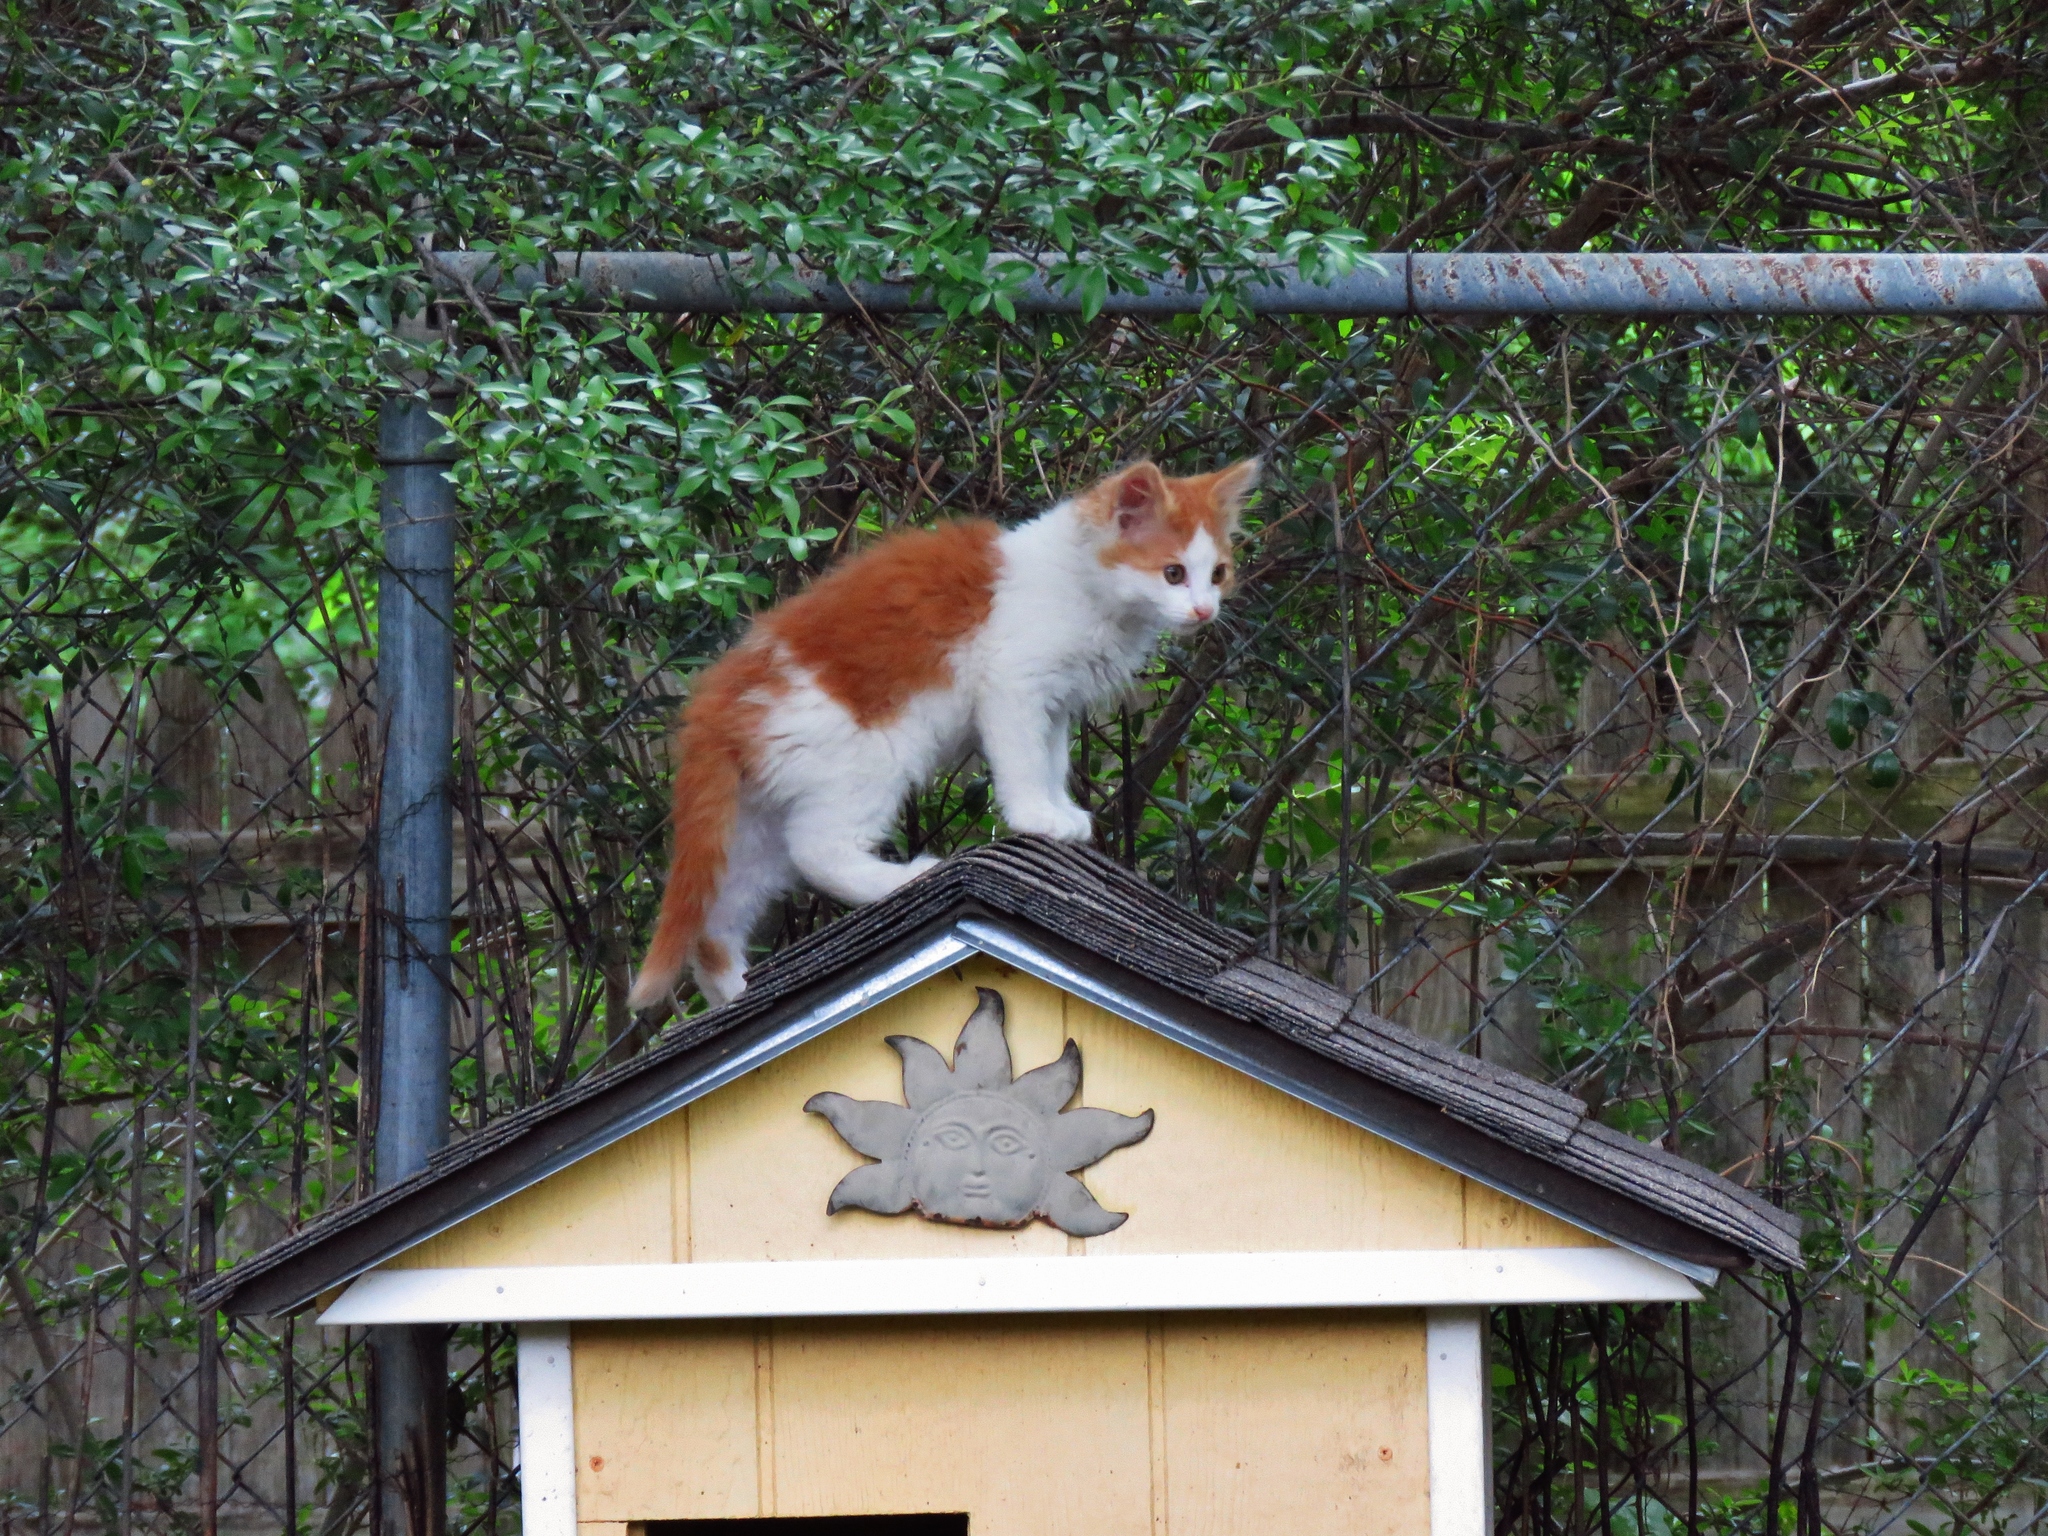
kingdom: Animalia
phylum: Chordata
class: Mammalia
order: Carnivora
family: Felidae
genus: Felis
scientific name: Felis catus
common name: Domestic cat
